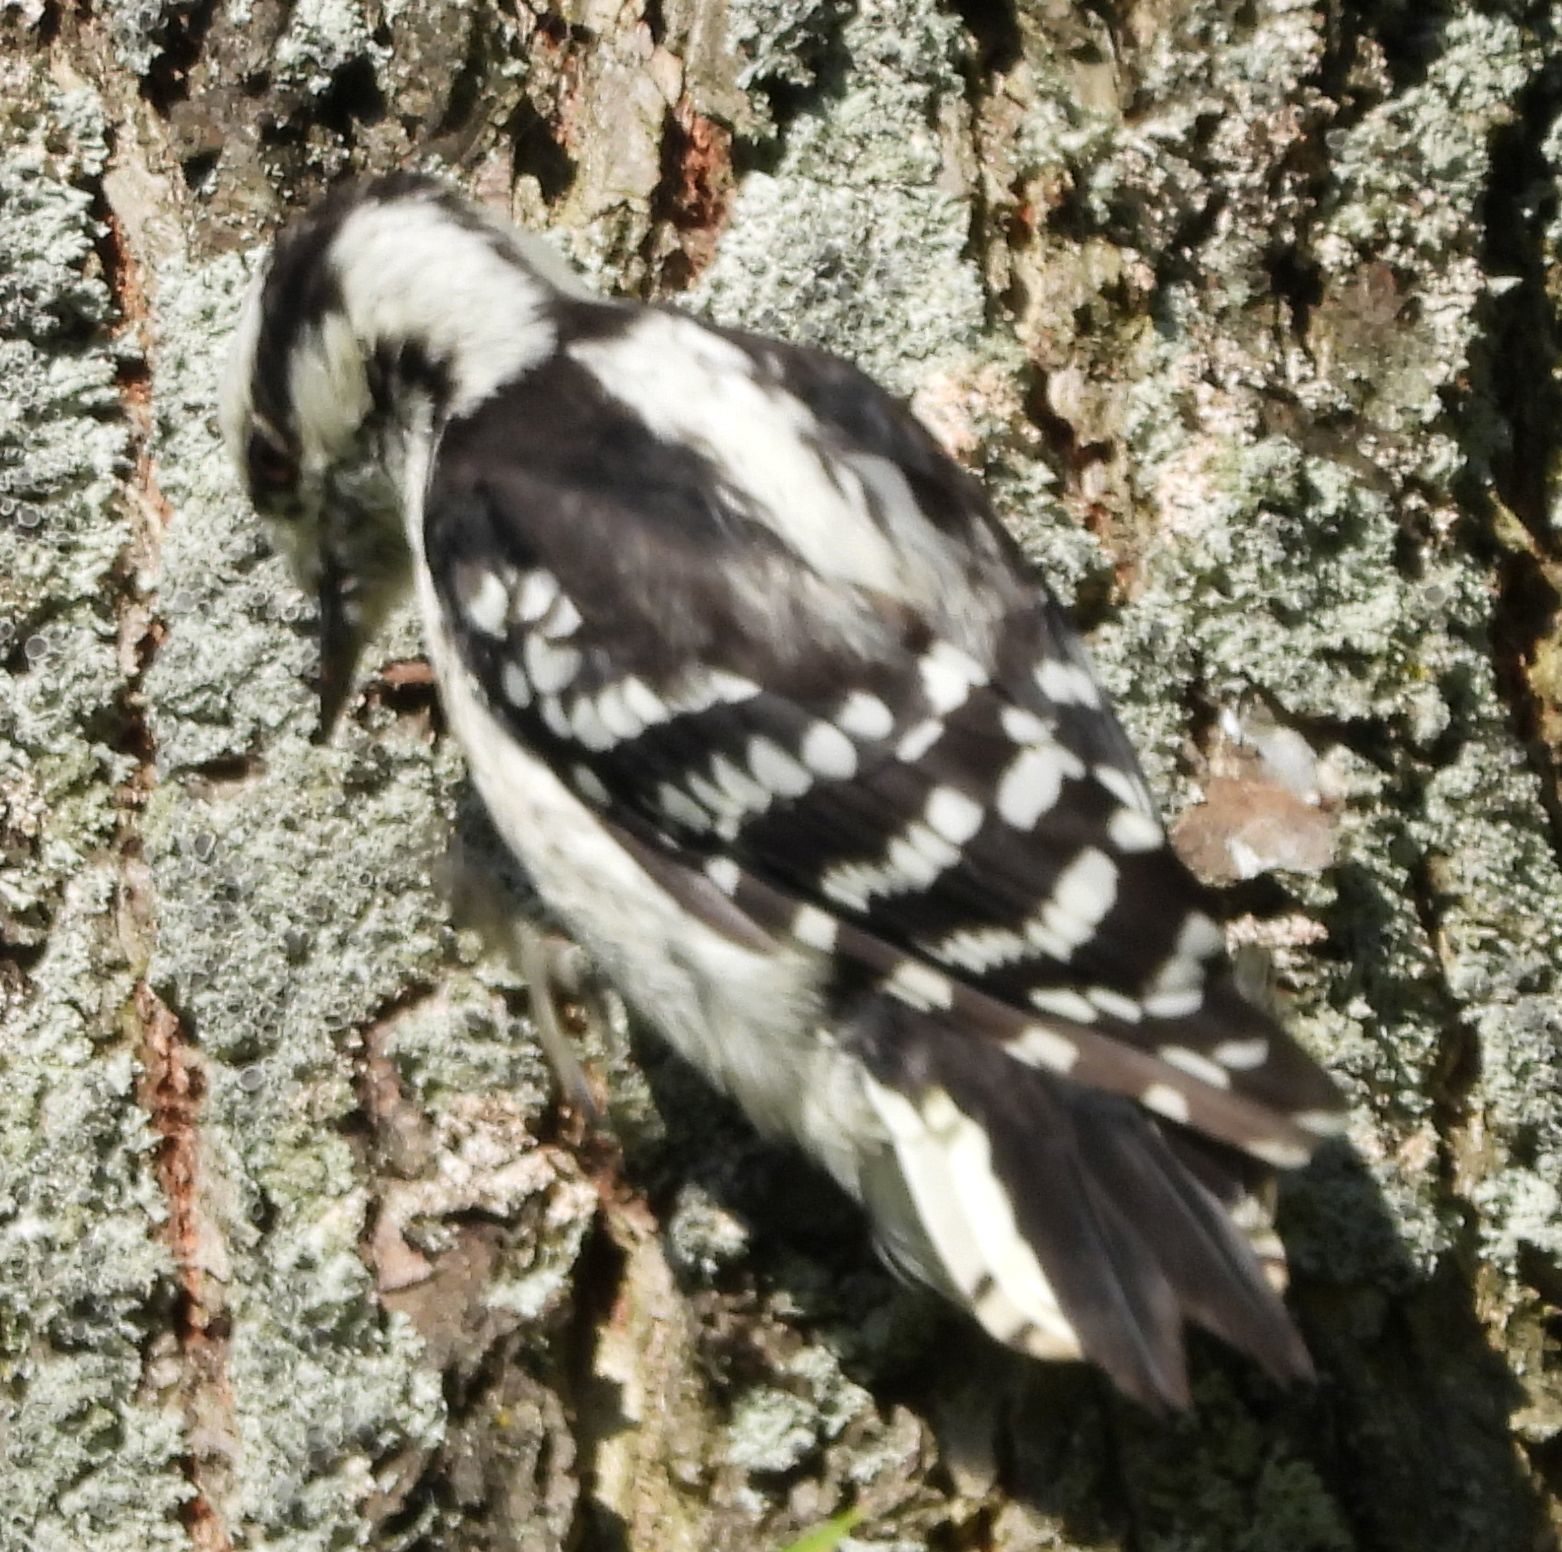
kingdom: Animalia
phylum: Chordata
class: Aves
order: Piciformes
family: Picidae
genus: Dryobates
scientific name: Dryobates pubescens
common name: Downy woodpecker
